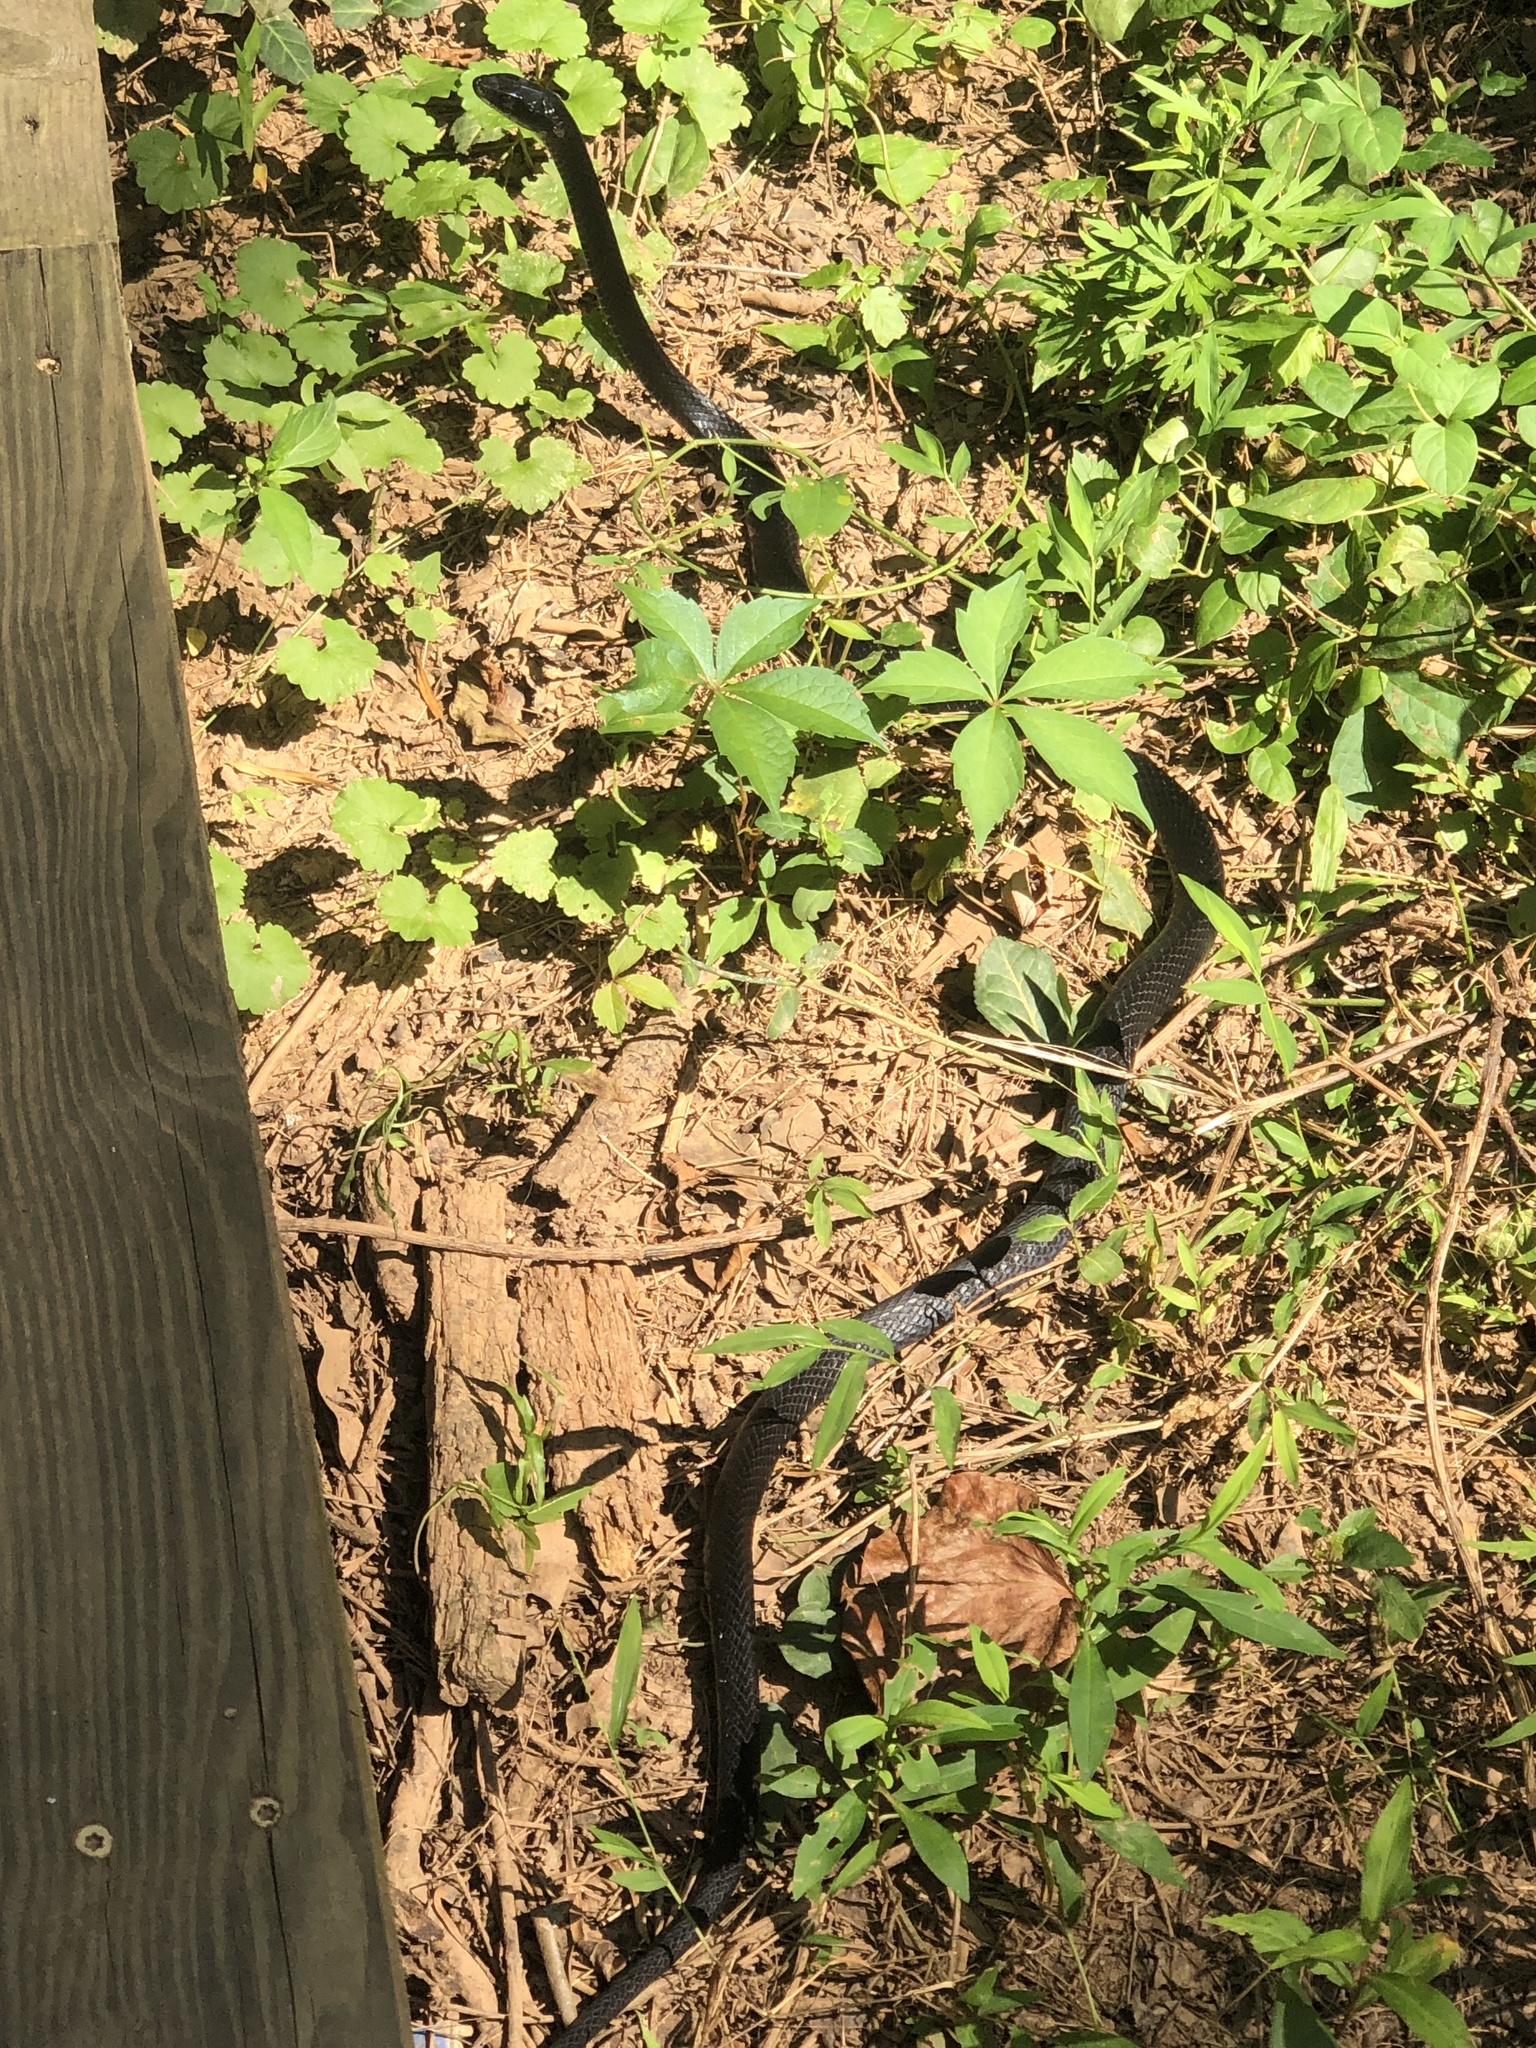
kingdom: Animalia
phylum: Chordata
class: Squamata
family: Colubridae
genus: Coluber
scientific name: Coluber constrictor
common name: Eastern racer
